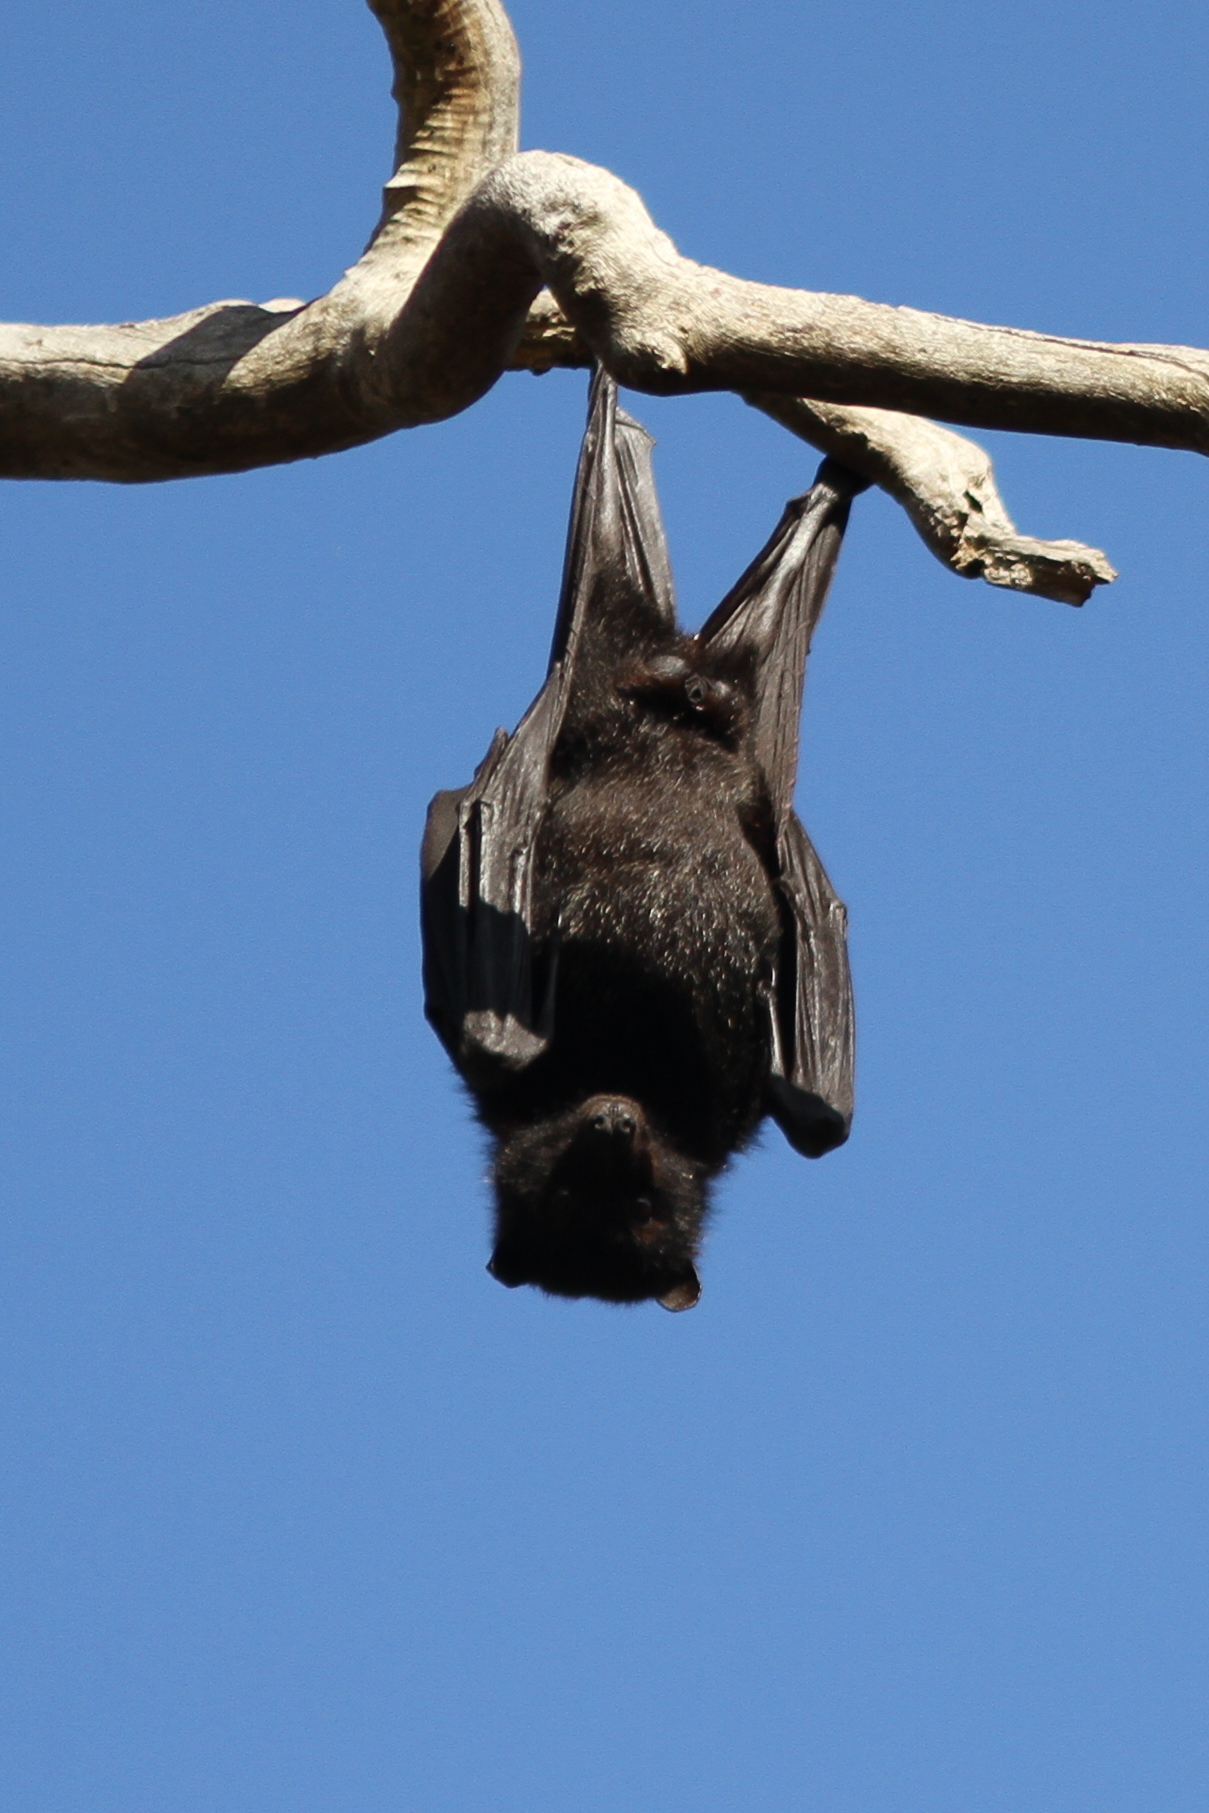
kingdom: Animalia
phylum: Chordata
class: Mammalia
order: Chiroptera
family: Pteropodidae
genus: Pteropus
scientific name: Pteropus alecto
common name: Black flying fox
